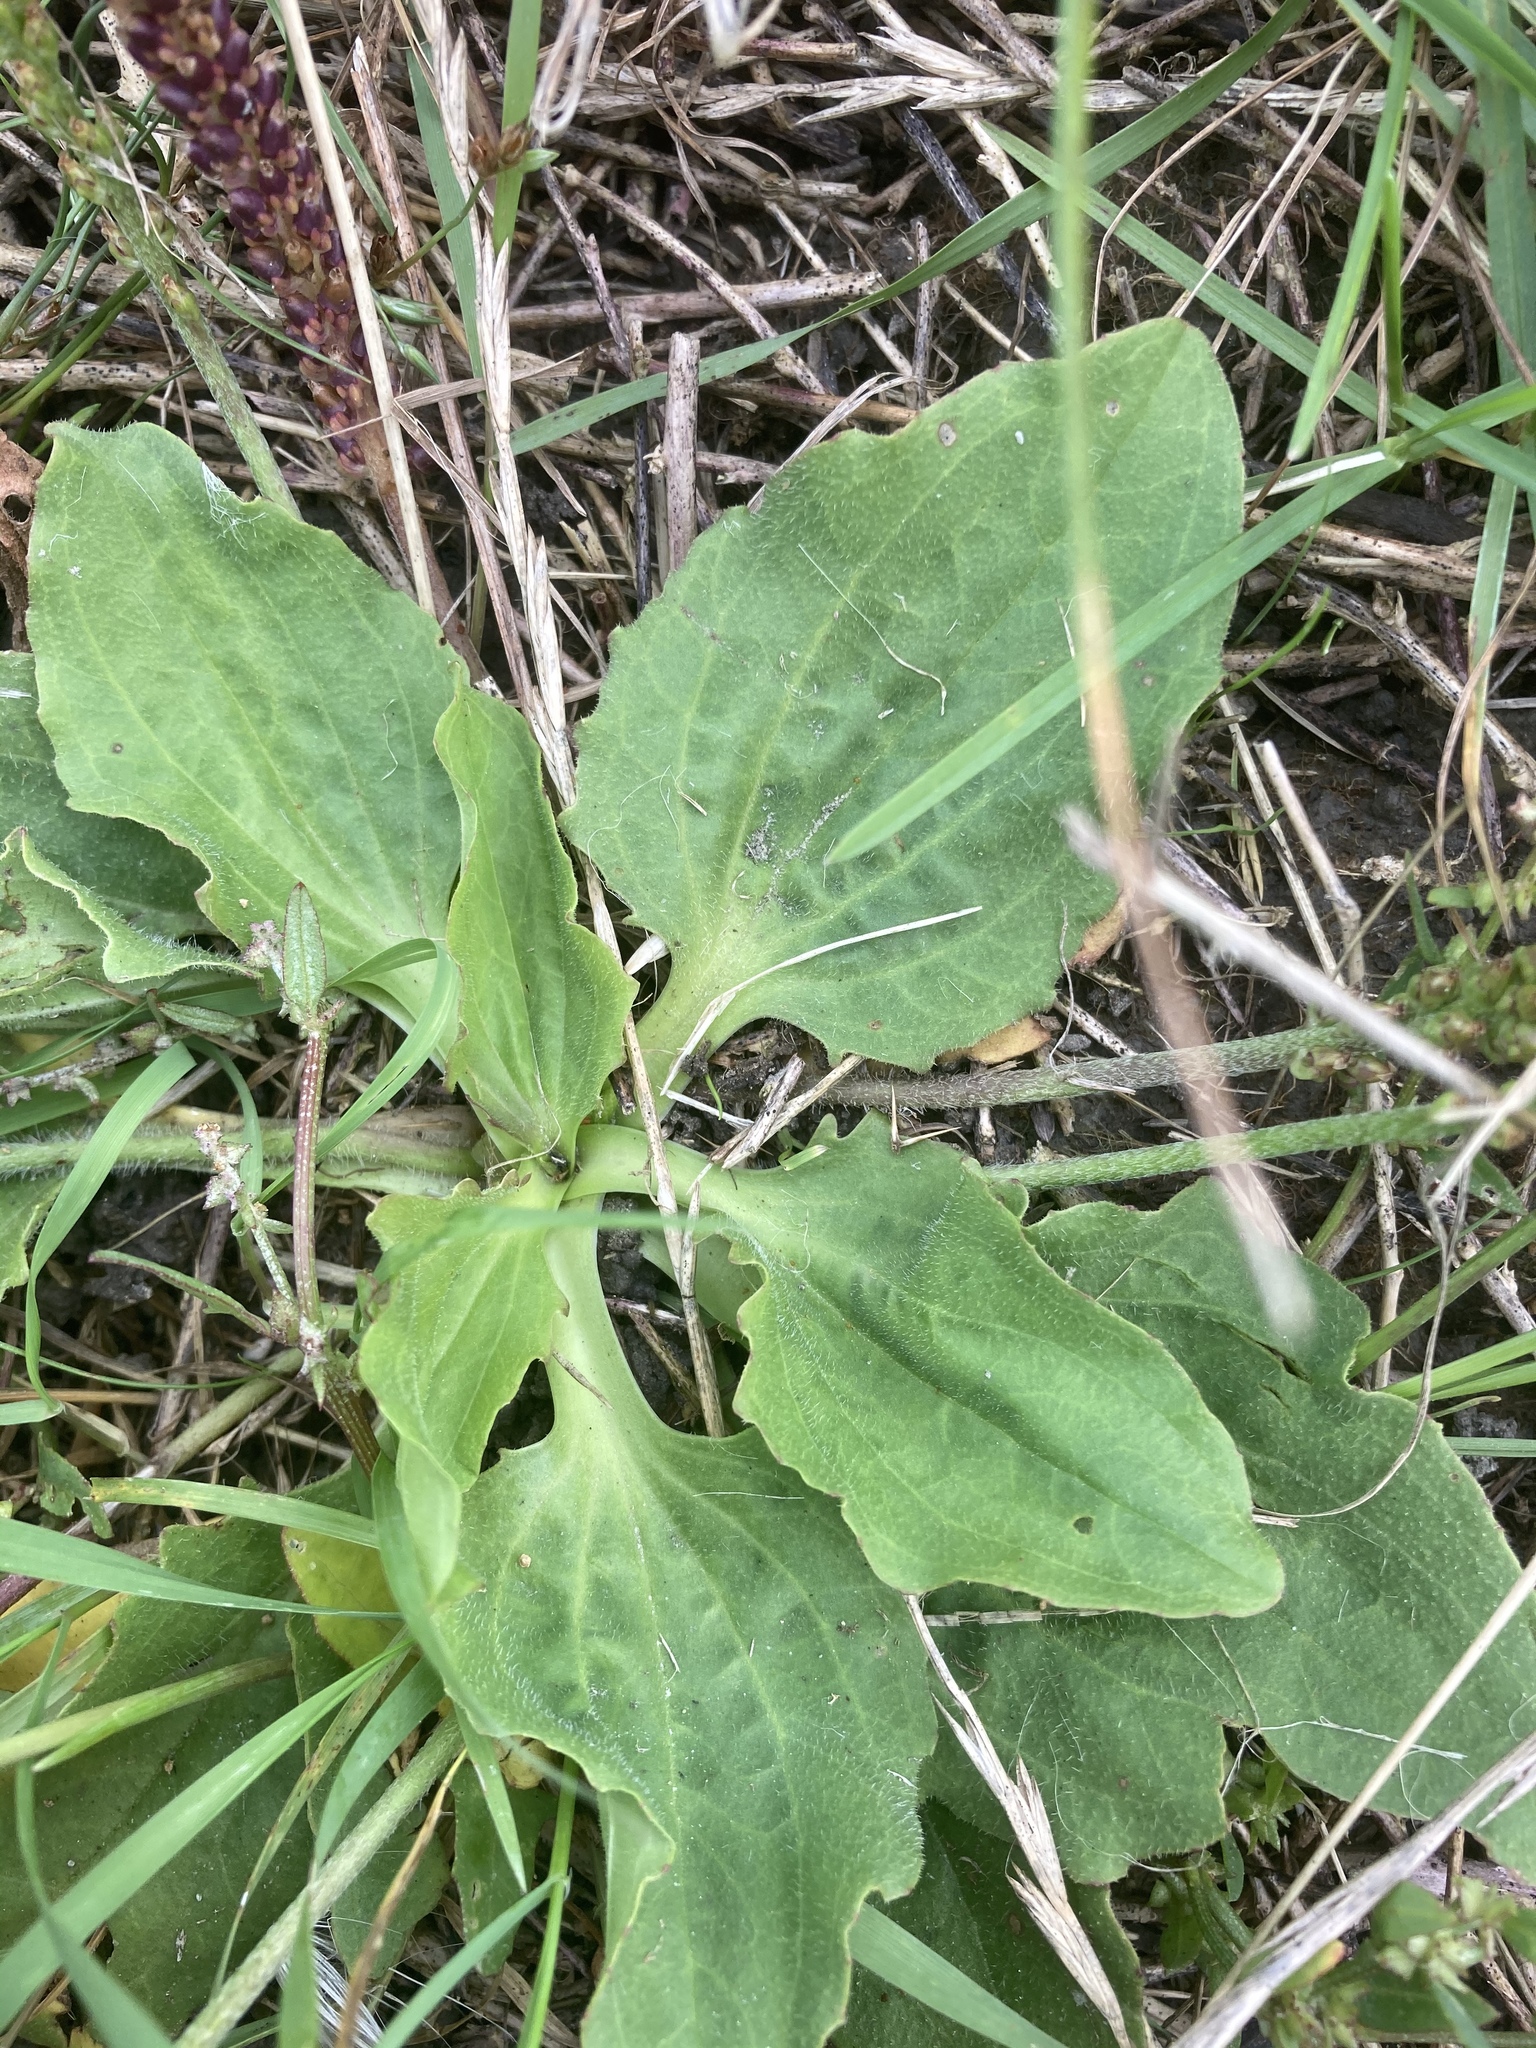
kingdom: Plantae
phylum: Tracheophyta
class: Magnoliopsida
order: Lamiales
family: Plantaginaceae
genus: Plantago
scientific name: Plantago uliginosa
